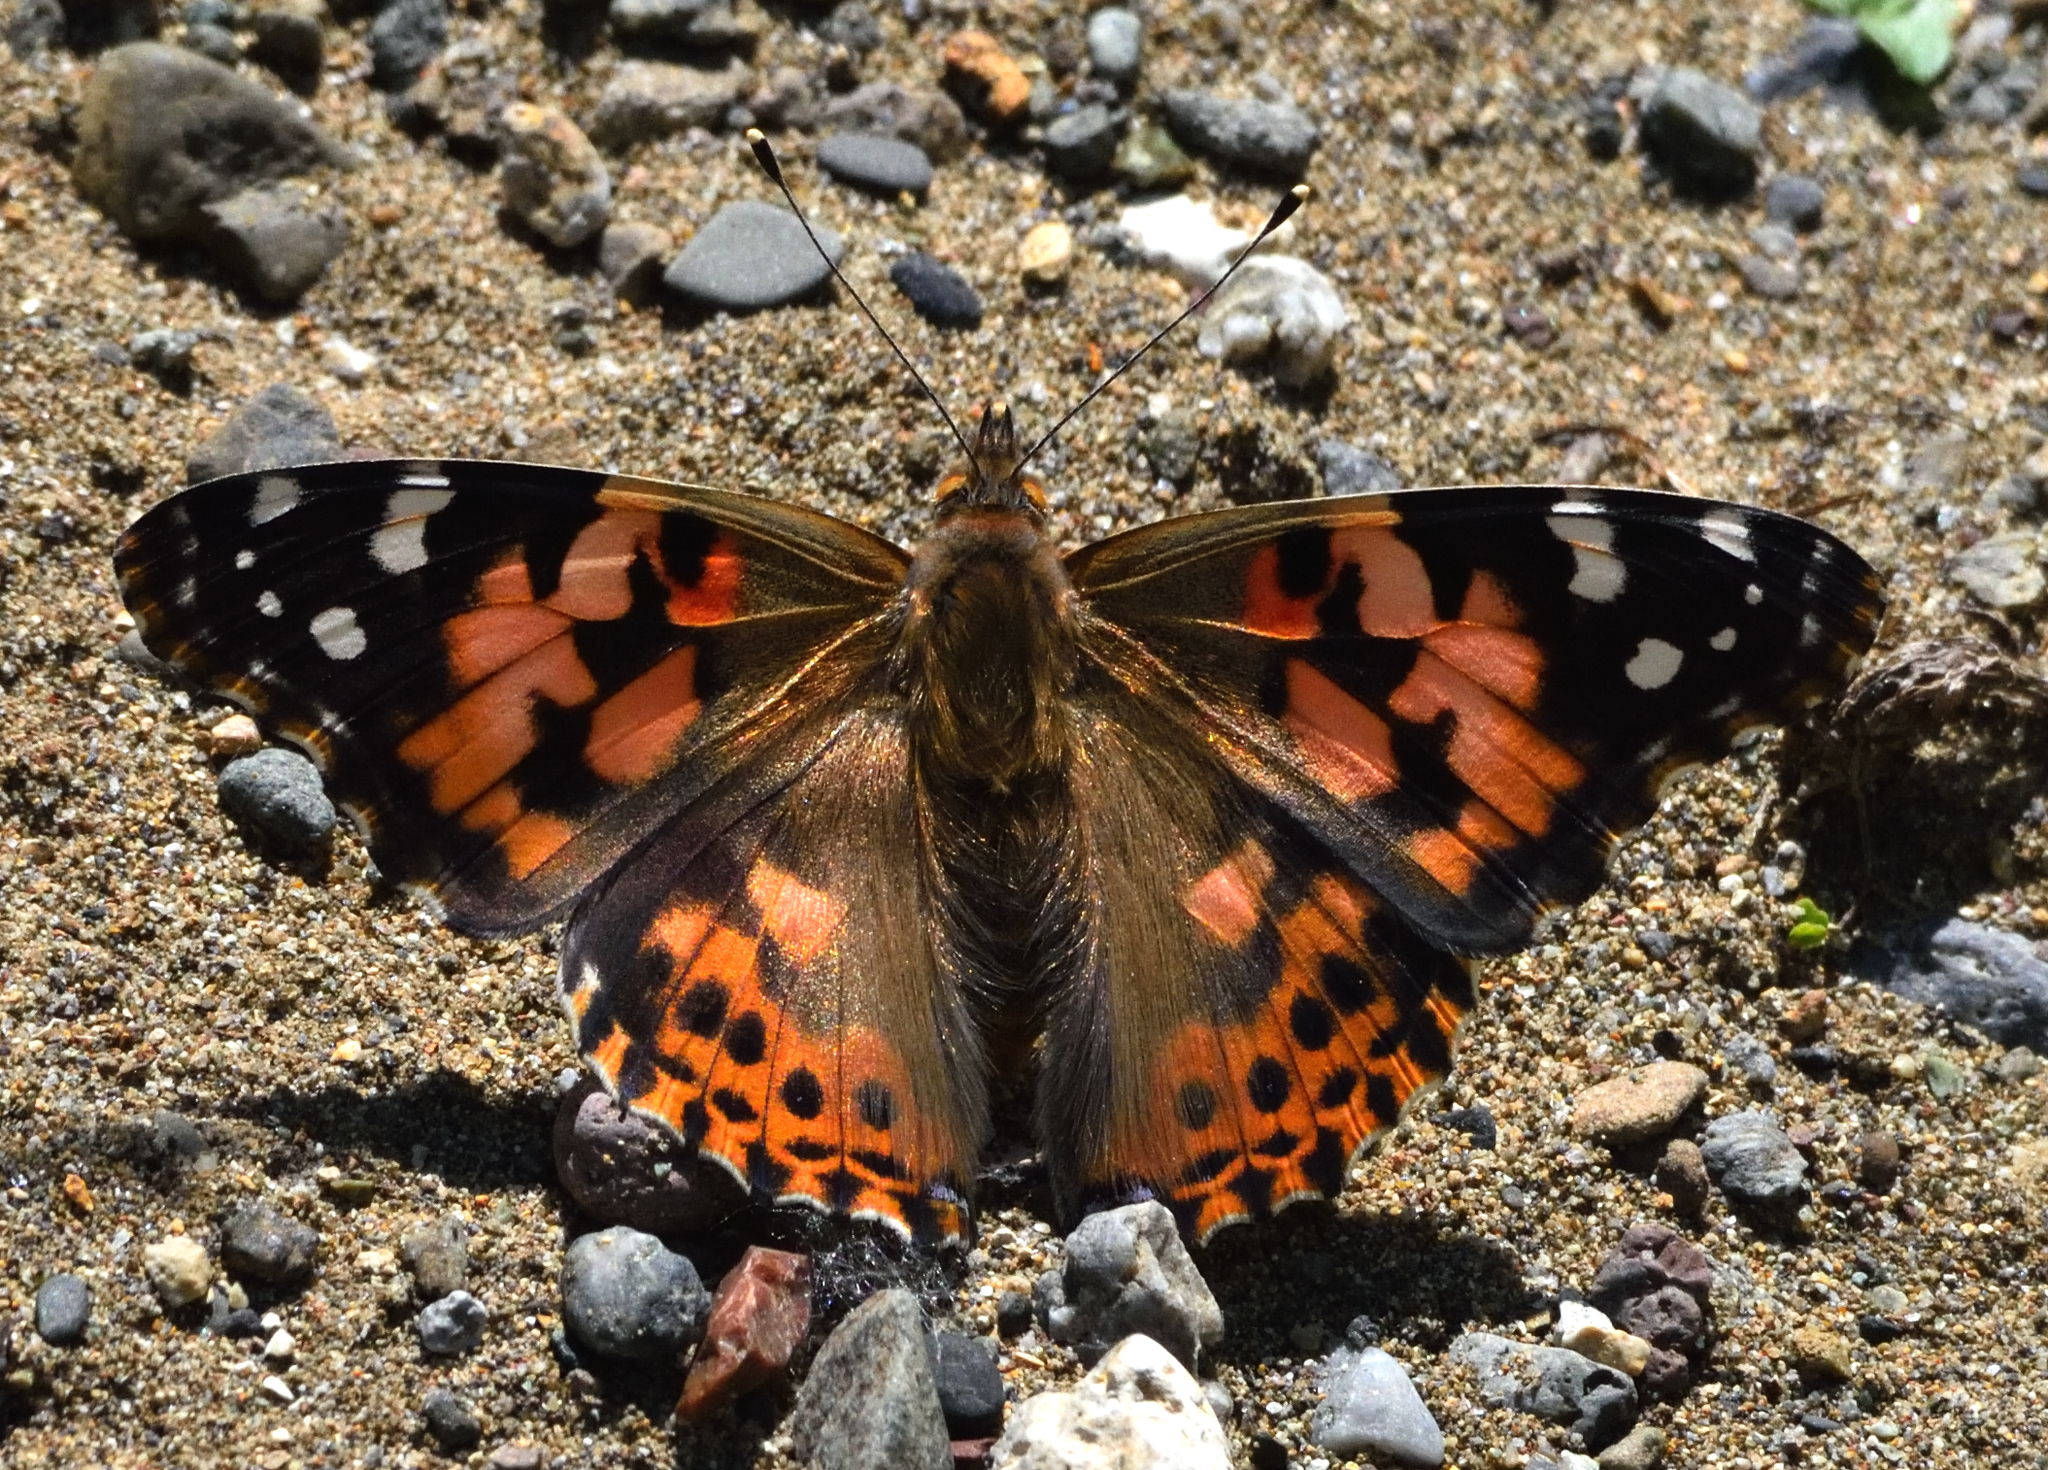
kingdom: Animalia
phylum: Arthropoda
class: Insecta
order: Lepidoptera
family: Nymphalidae
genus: Vanessa
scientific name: Vanessa cardui
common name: Painted lady
